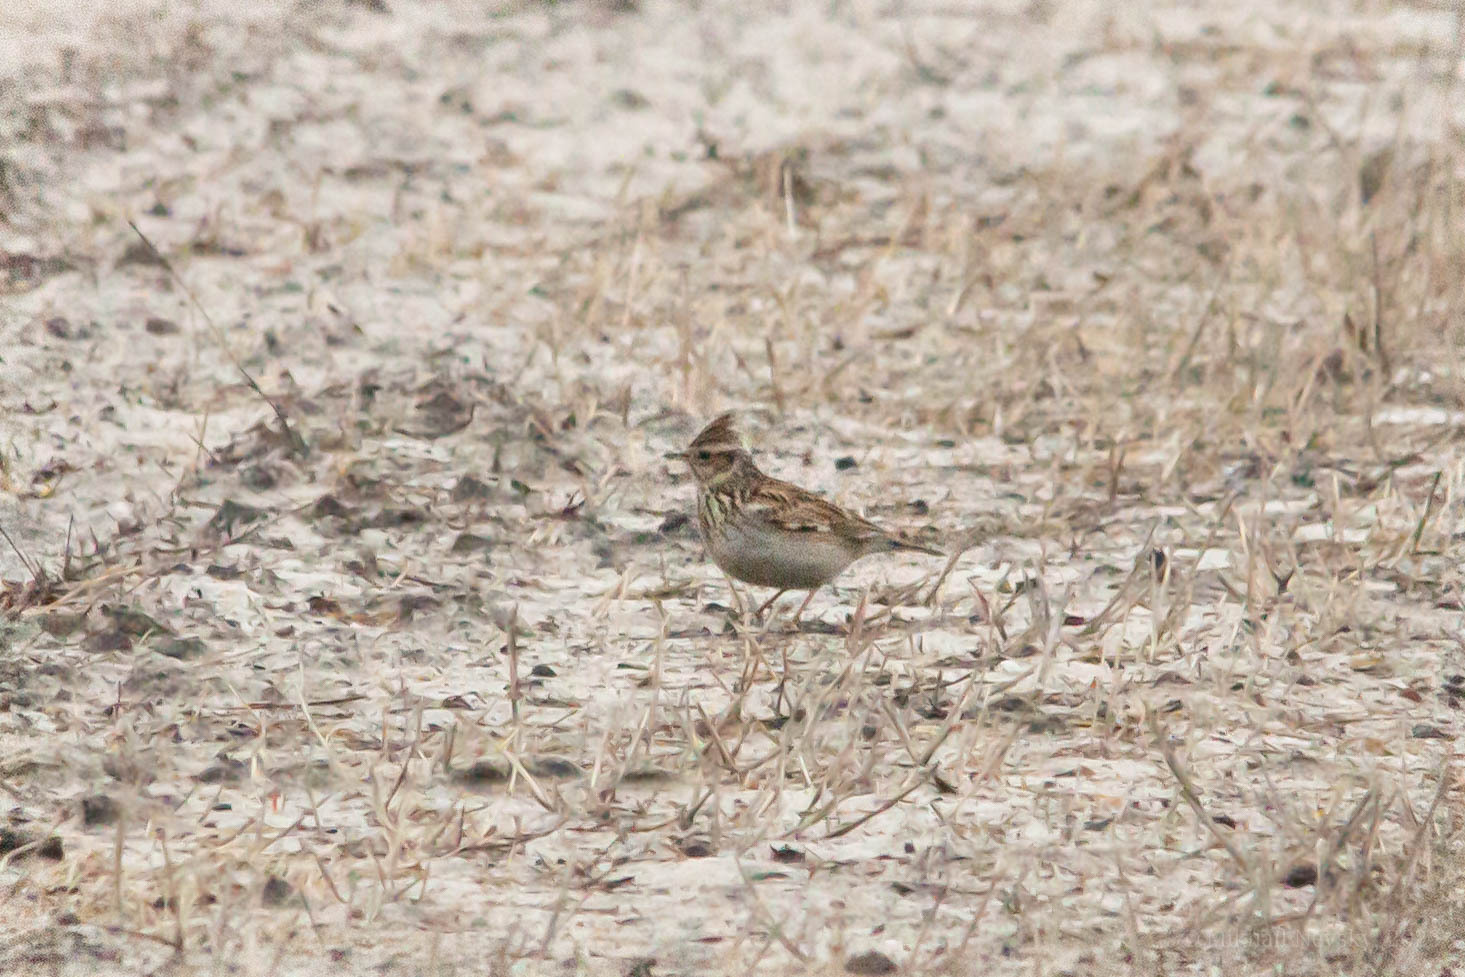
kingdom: Animalia
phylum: Chordata
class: Aves
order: Passeriformes
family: Alaudidae
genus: Lullula
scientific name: Lullula arborea
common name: Woodlark
